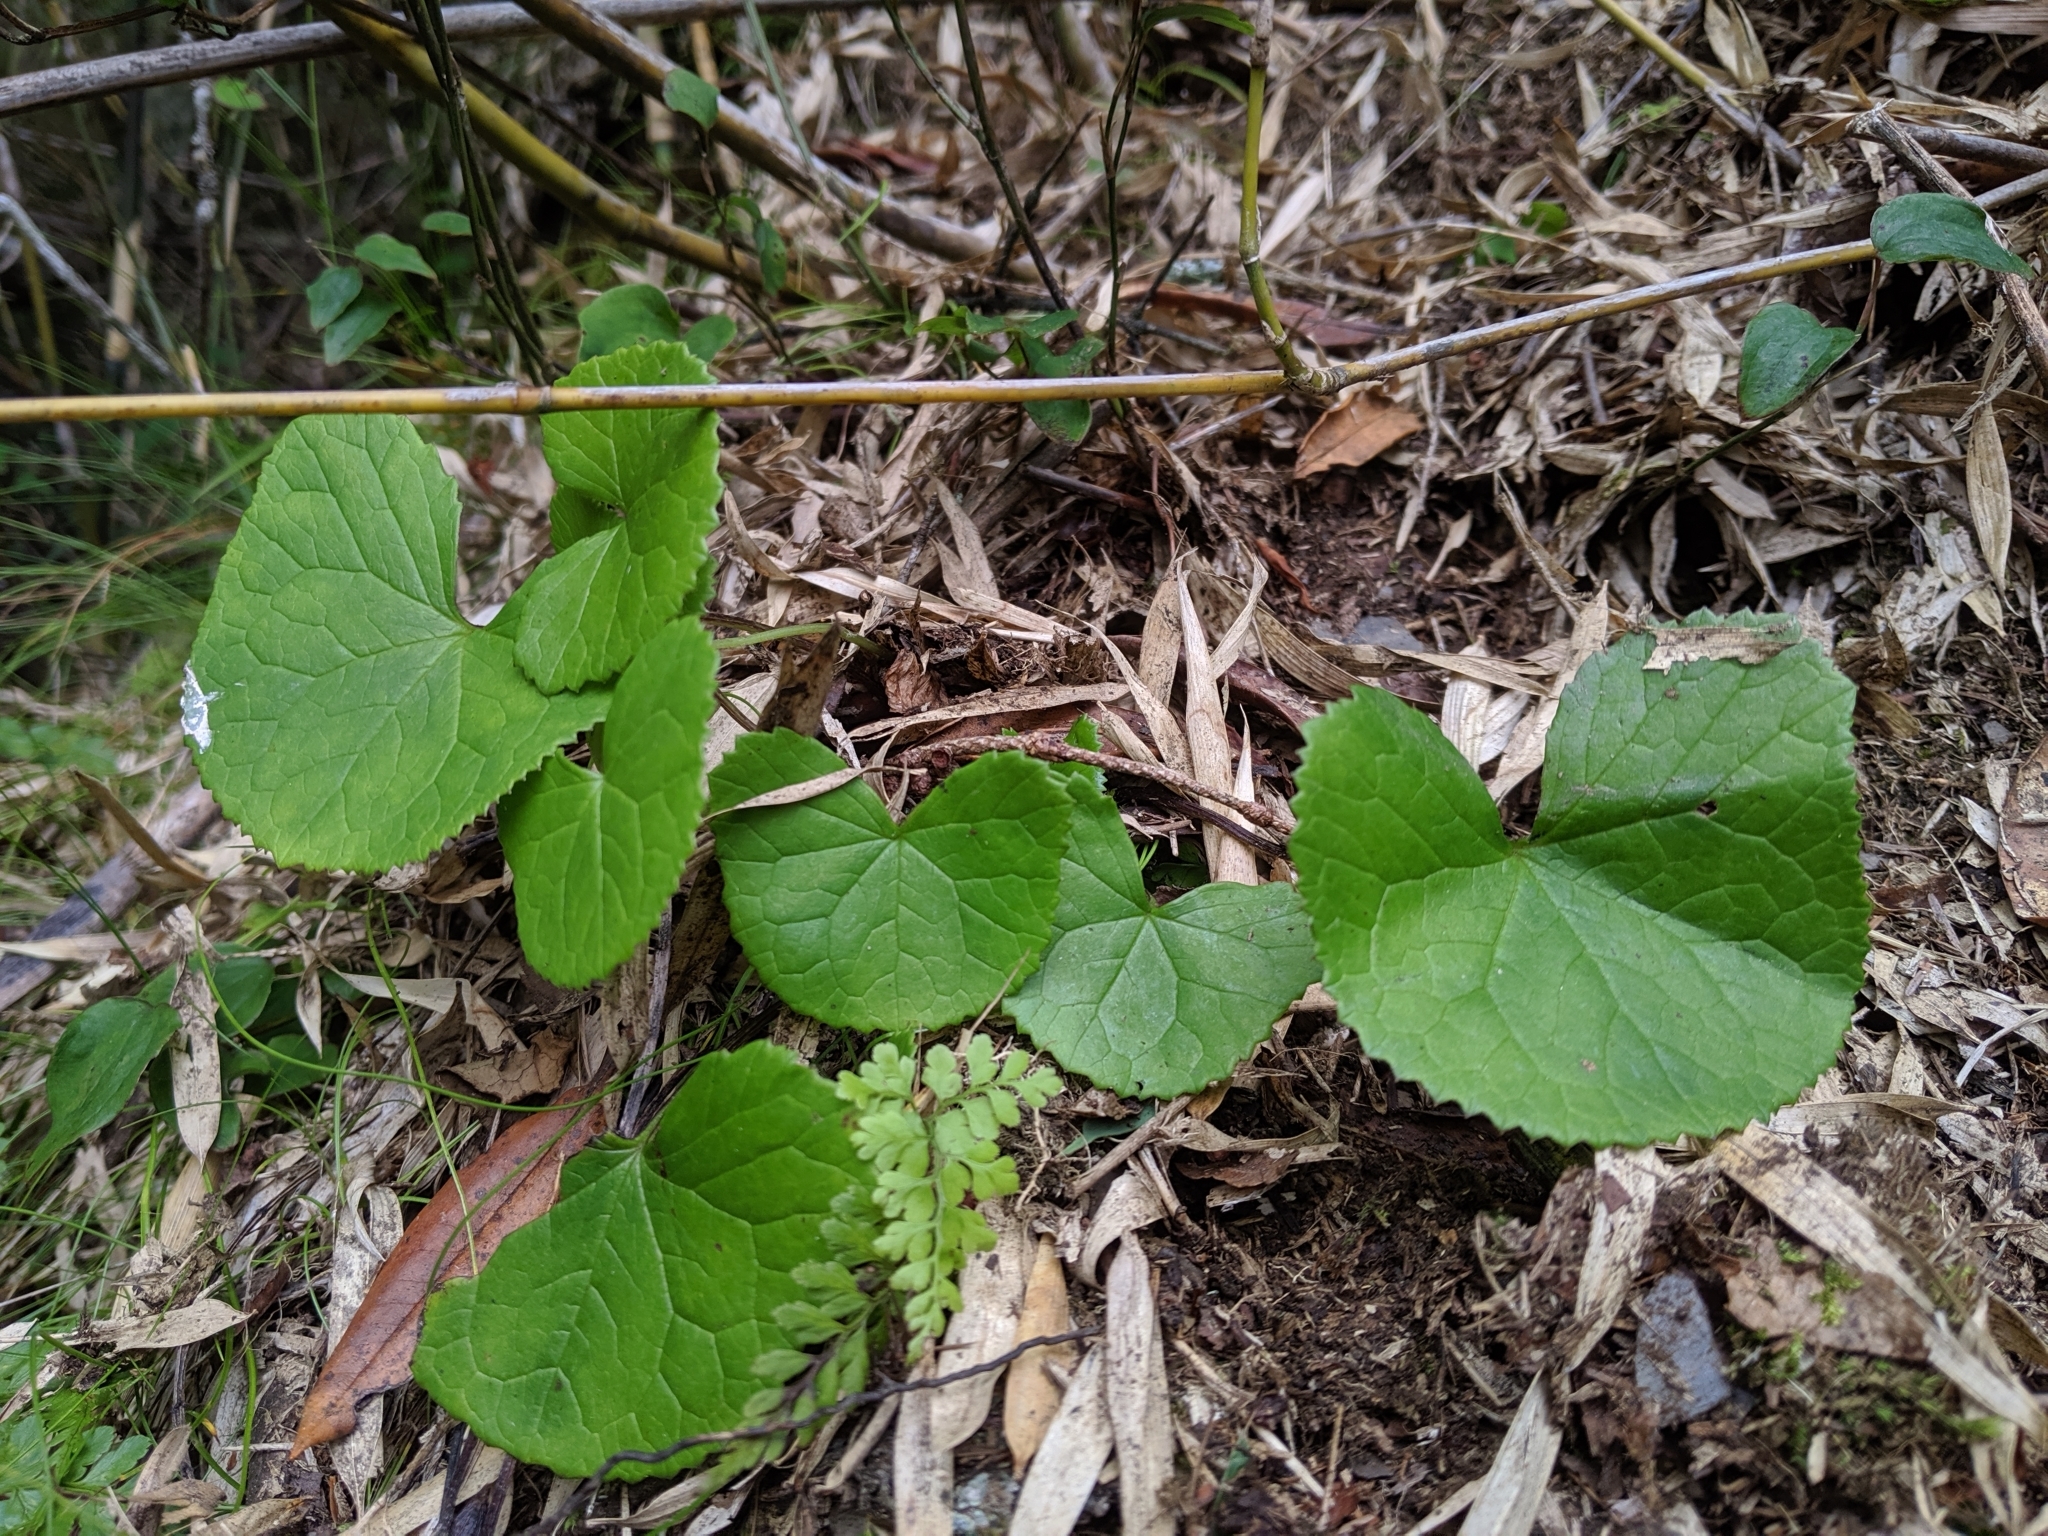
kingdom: Plantae
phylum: Tracheophyta
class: Magnoliopsida
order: Asterales
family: Asteraceae
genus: Ligularia
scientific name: Ligularia kojimae
